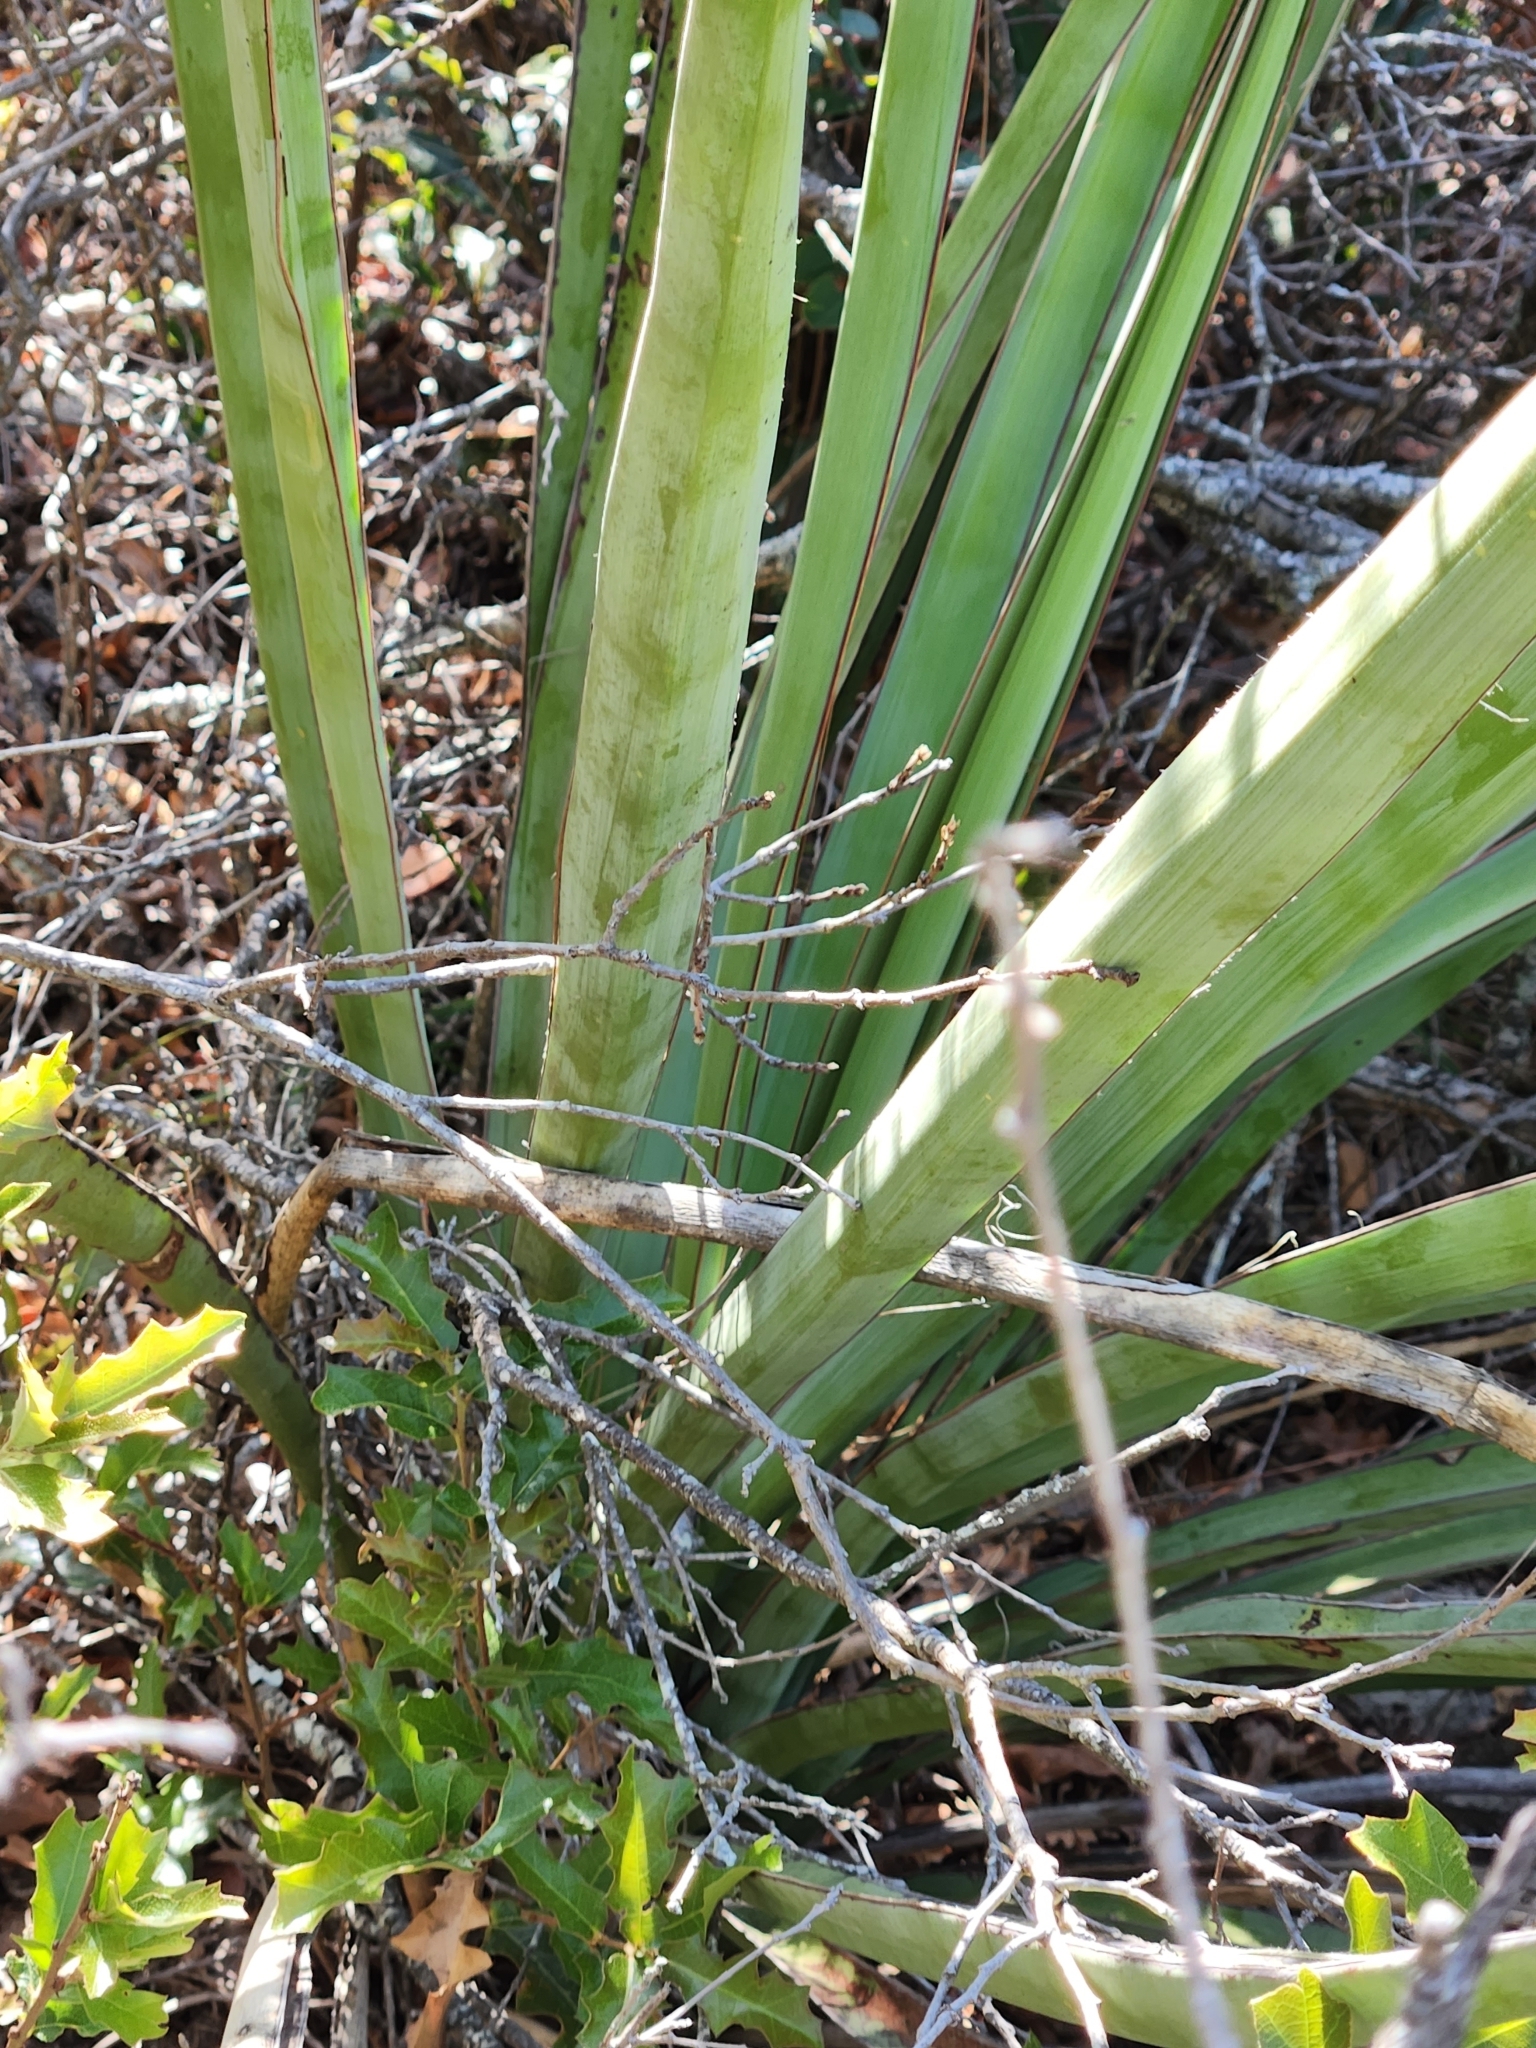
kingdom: Plantae
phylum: Tracheophyta
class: Liliopsida
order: Asparagales
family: Asparagaceae
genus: Yucca
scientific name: Yucca treculiana
